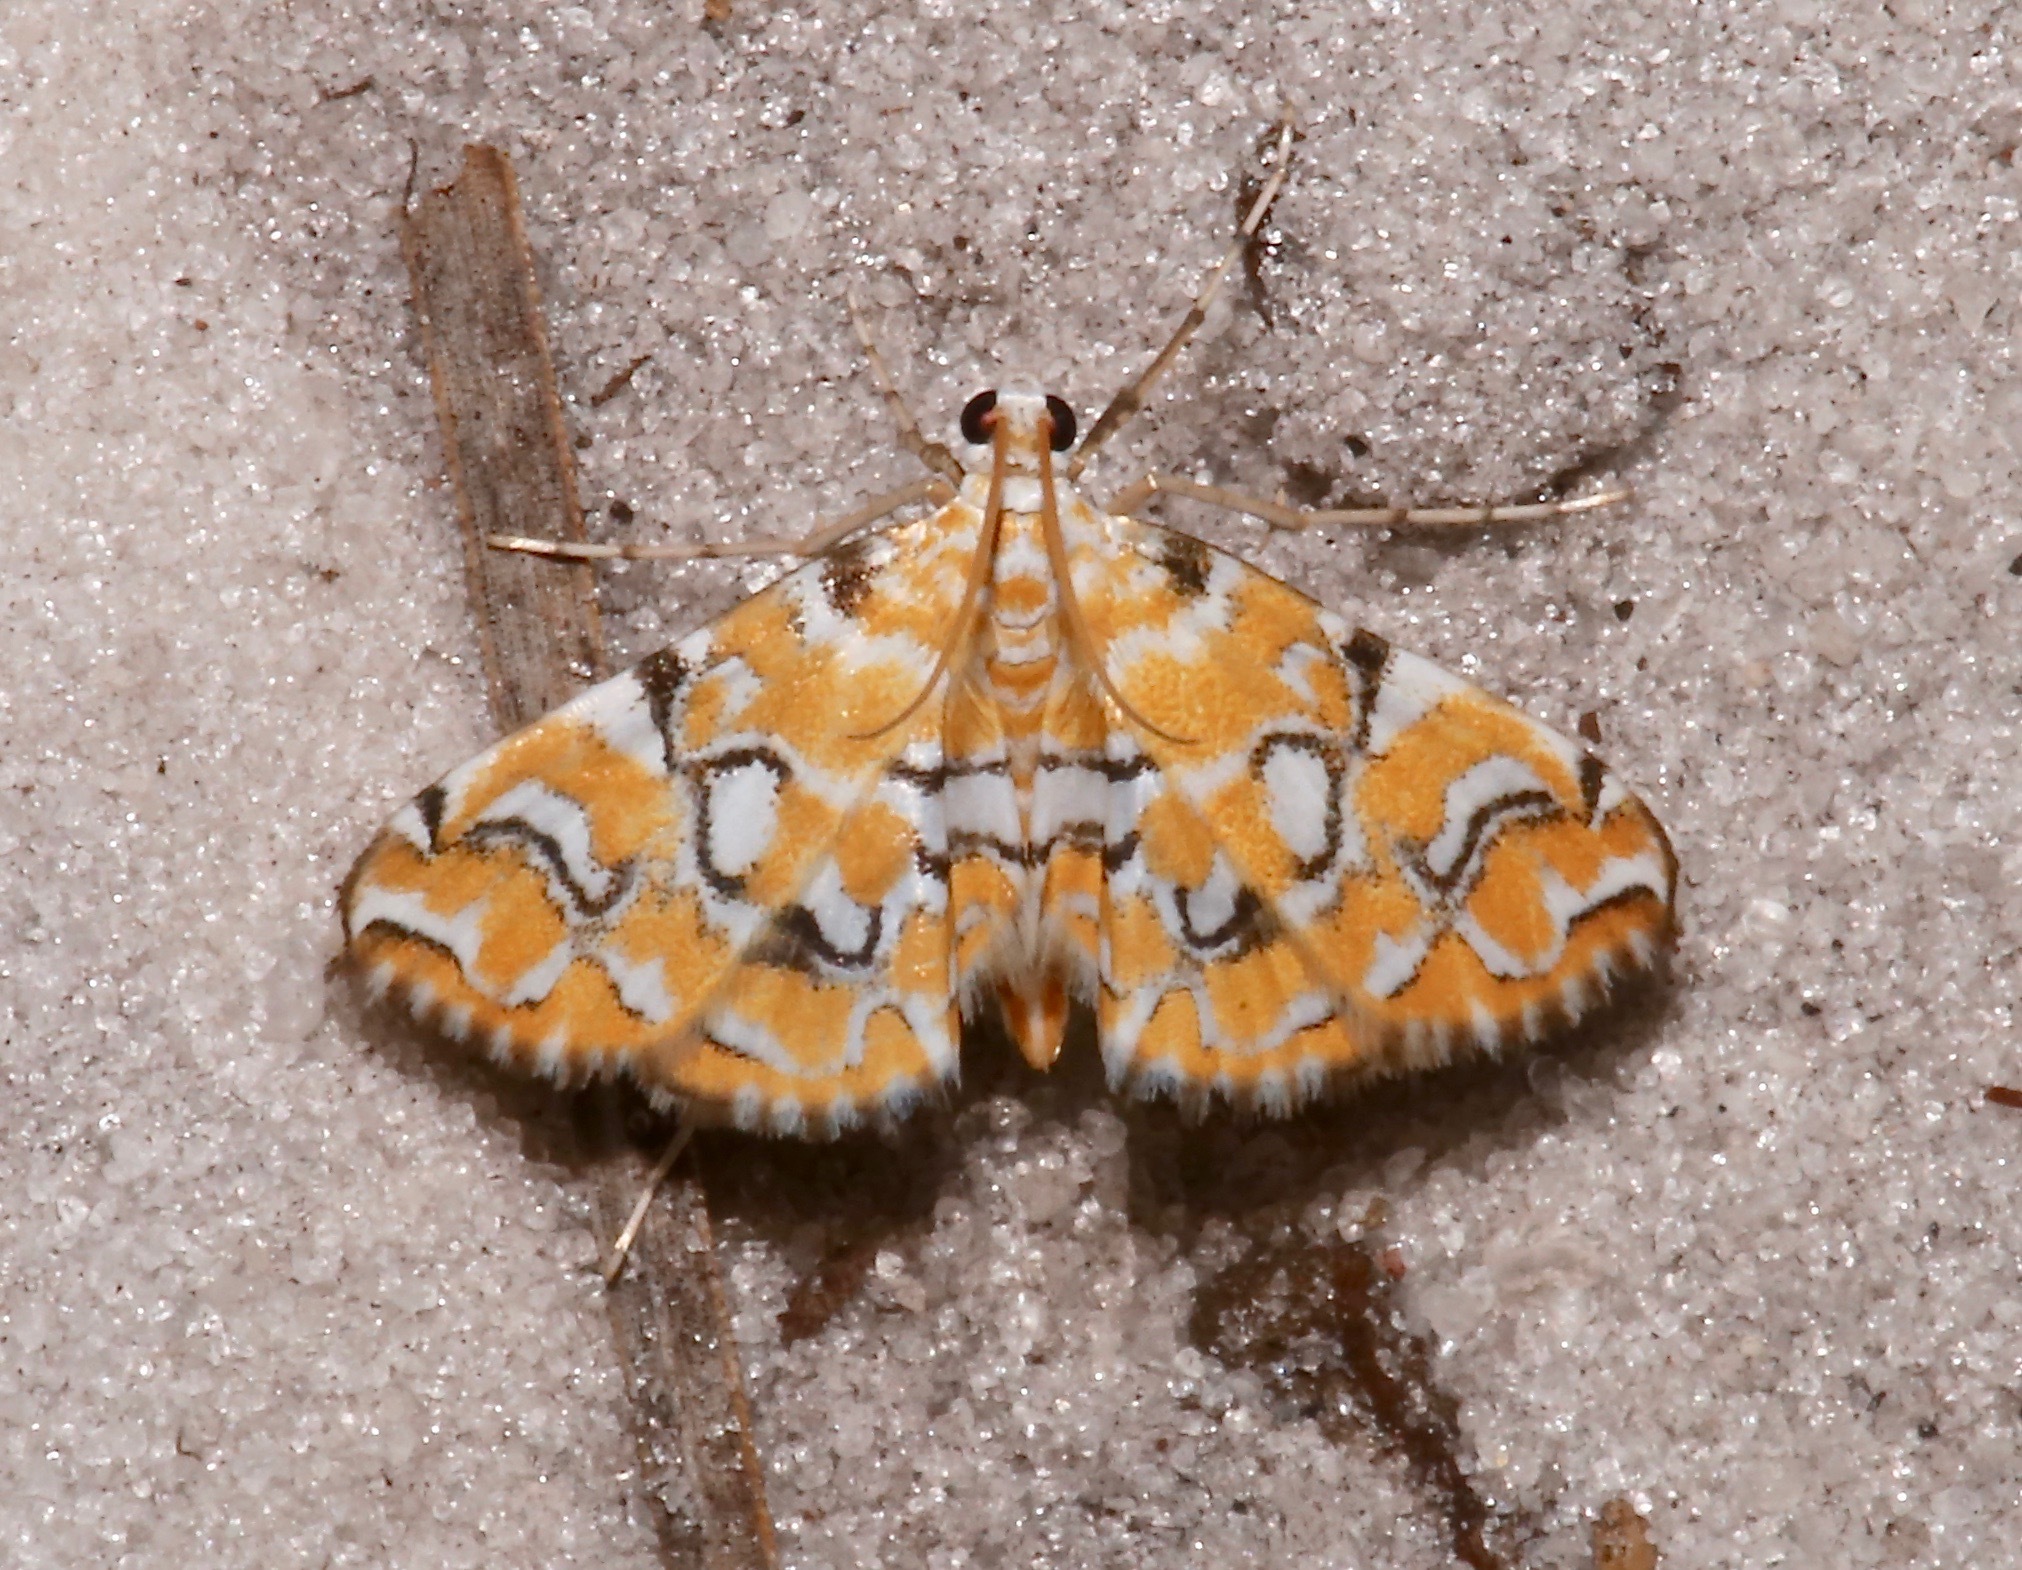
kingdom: Animalia
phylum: Arthropoda
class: Insecta
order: Lepidoptera
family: Crambidae
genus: Elophila
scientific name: Elophila icciusalis
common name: Pondside pyralid moth
